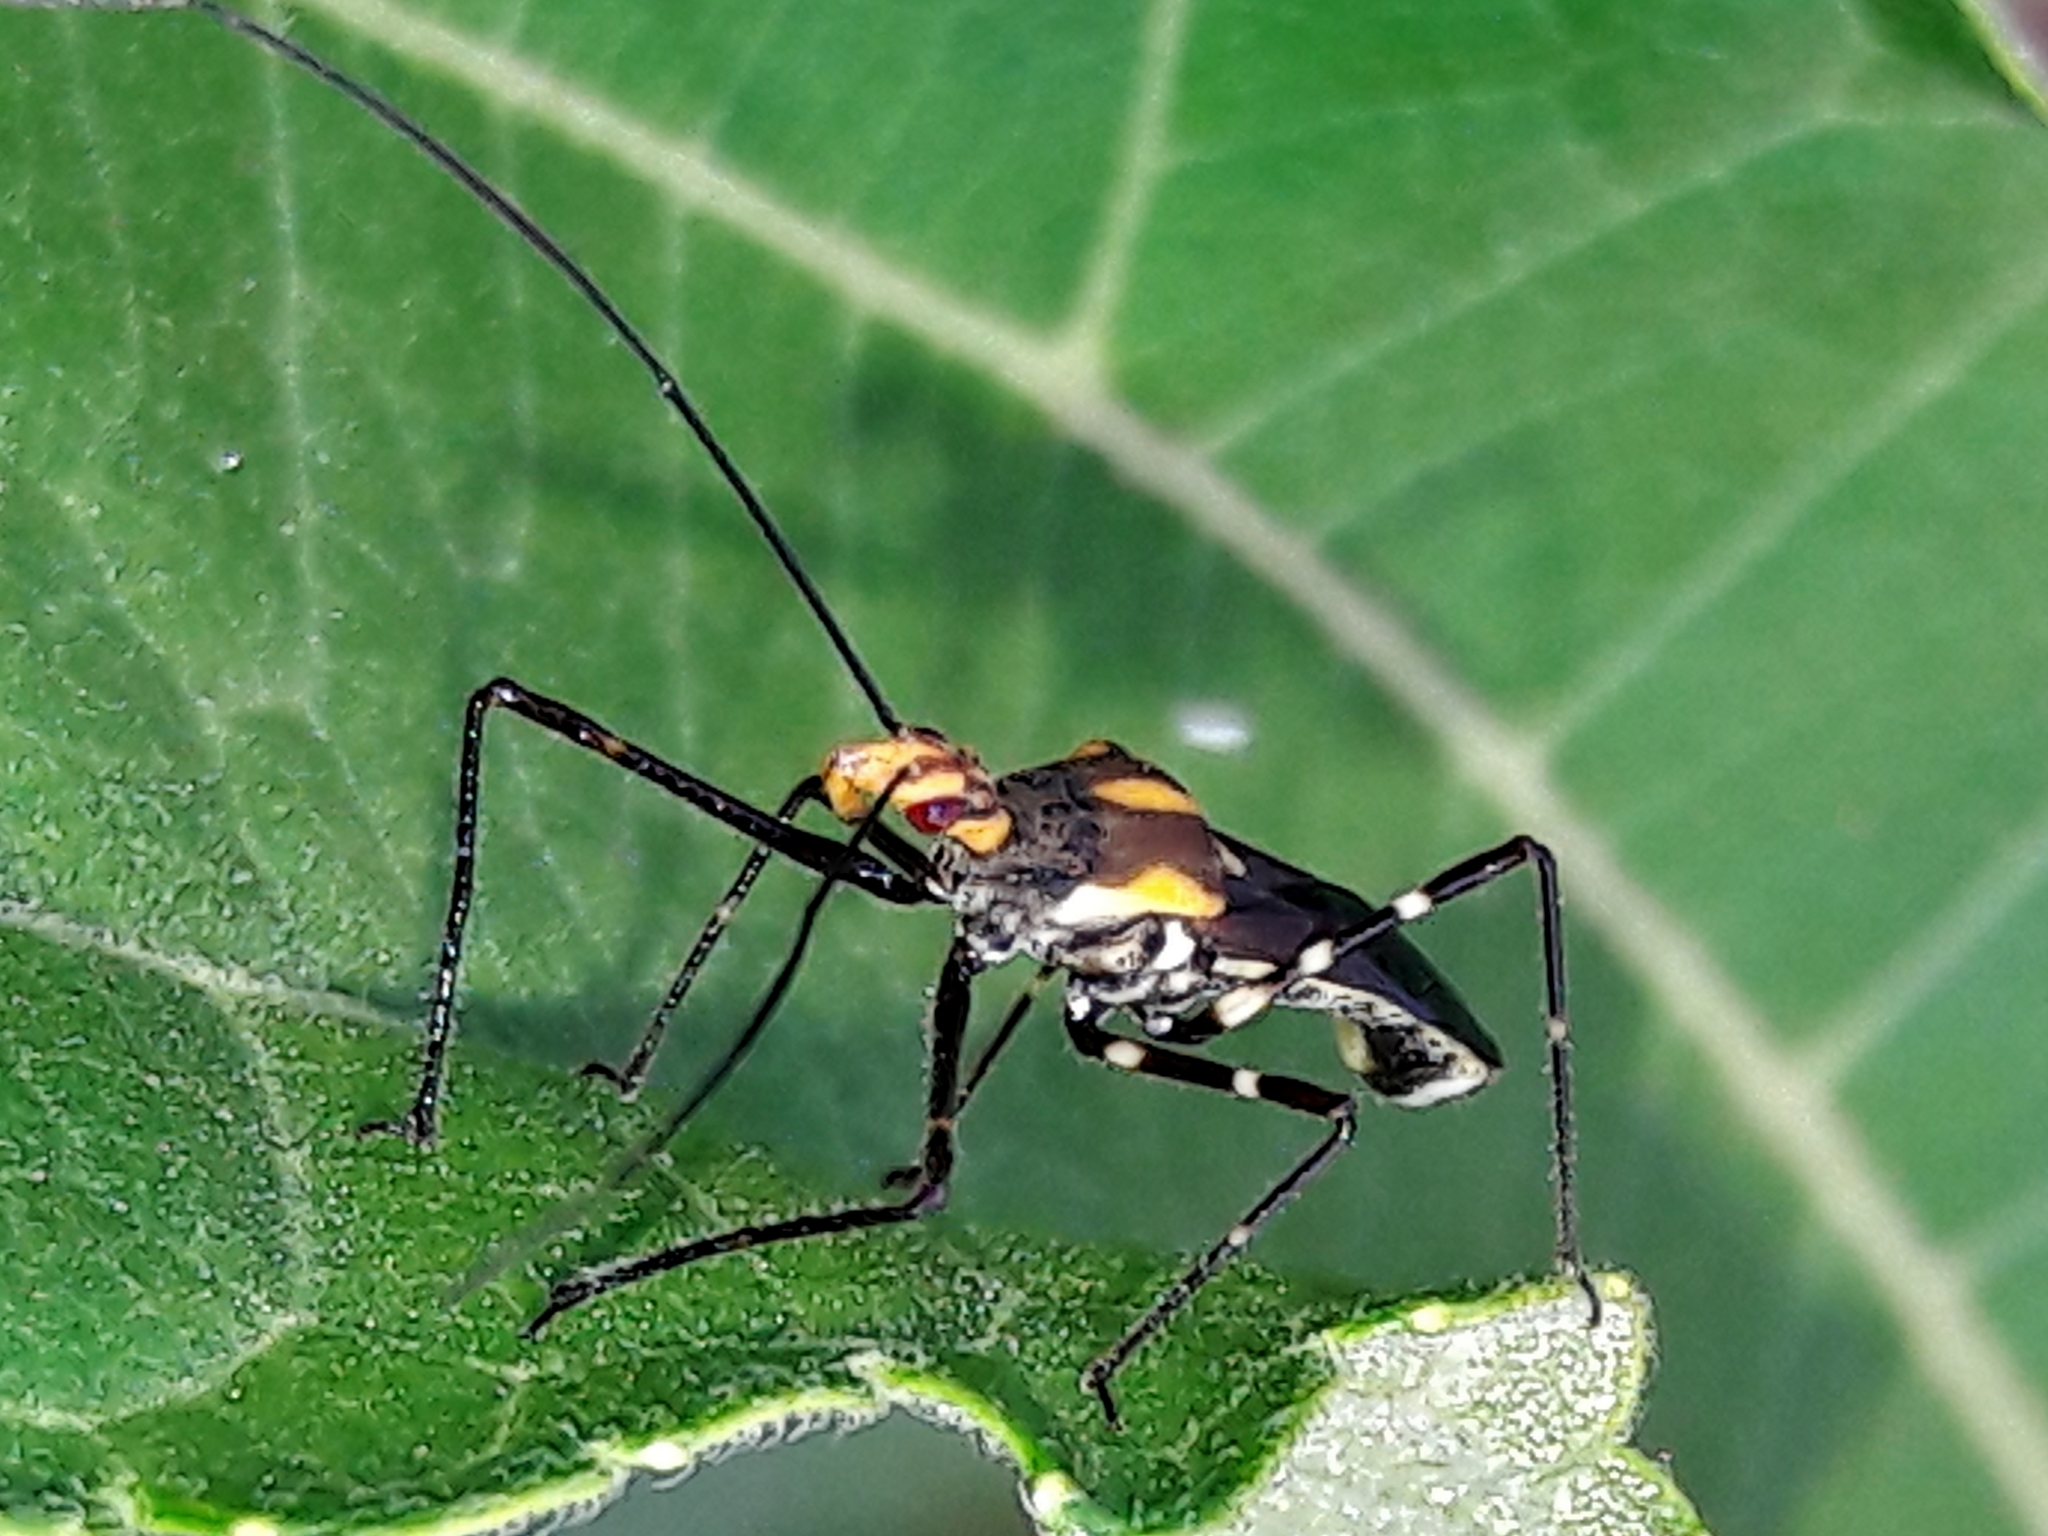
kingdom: Animalia
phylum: Arthropoda
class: Insecta
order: Hemiptera
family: Reduviidae
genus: Zelus
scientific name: Zelus laticornis
